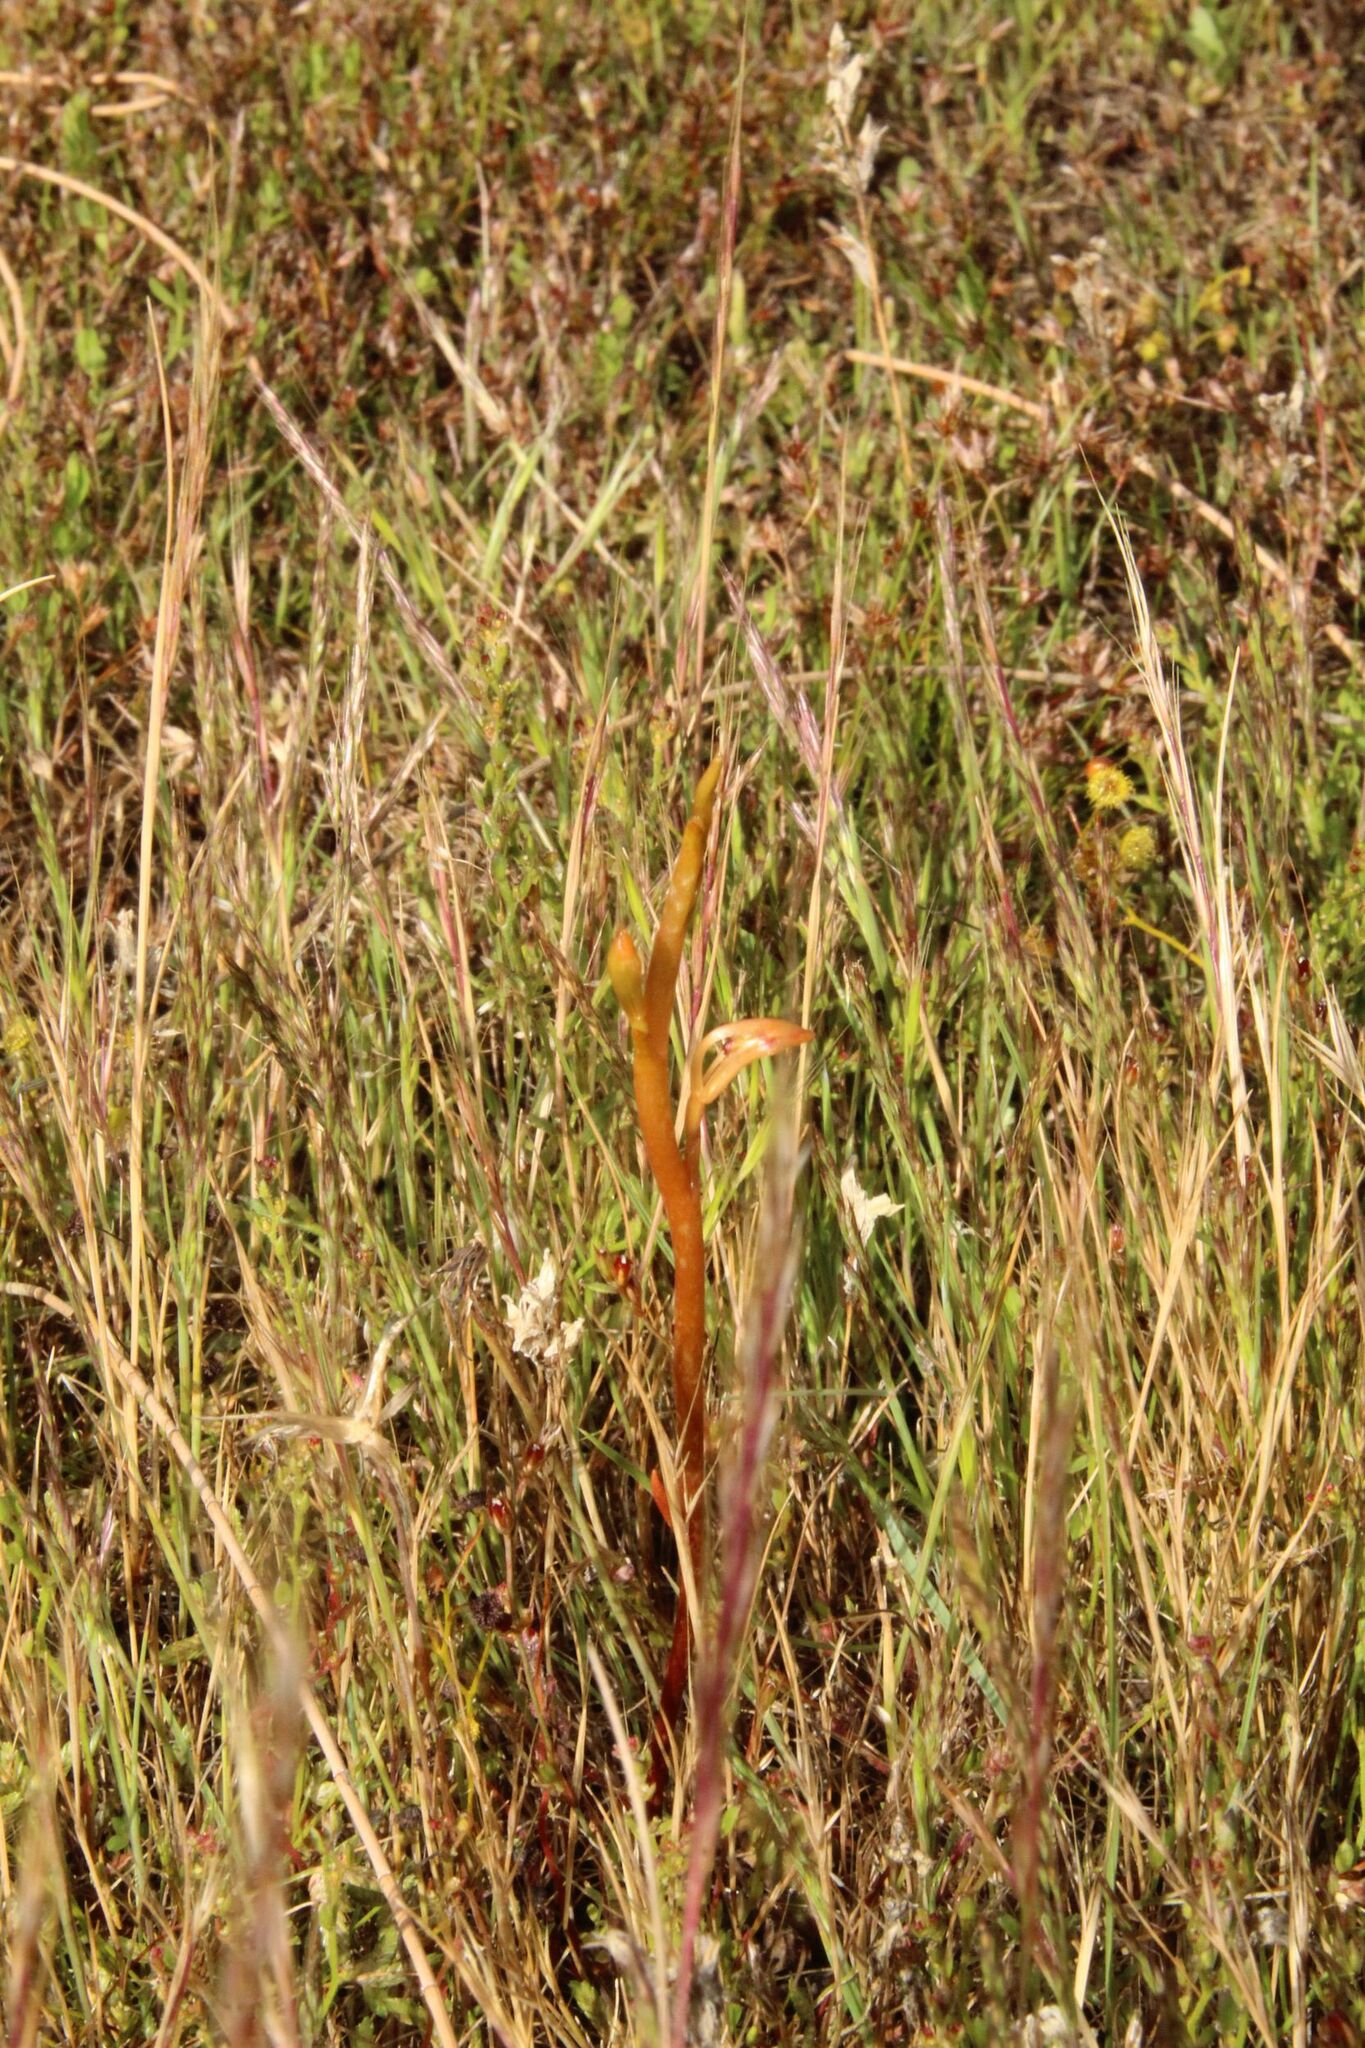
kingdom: Plantae
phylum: Tracheophyta
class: Liliopsida
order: Asparagales
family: Orchidaceae
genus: Spiculaea
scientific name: Spiculaea ciliata
